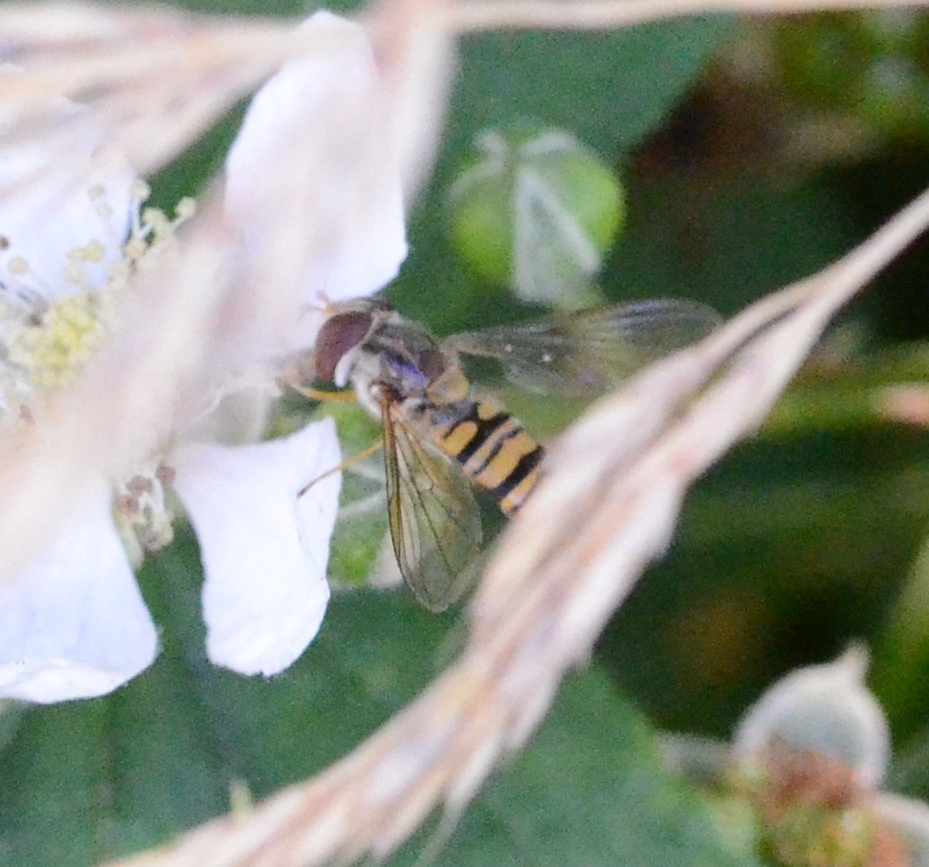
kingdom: Animalia
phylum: Arthropoda
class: Insecta
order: Diptera
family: Syrphidae
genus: Episyrphus
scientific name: Episyrphus balteatus
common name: Marmalade hoverfly
